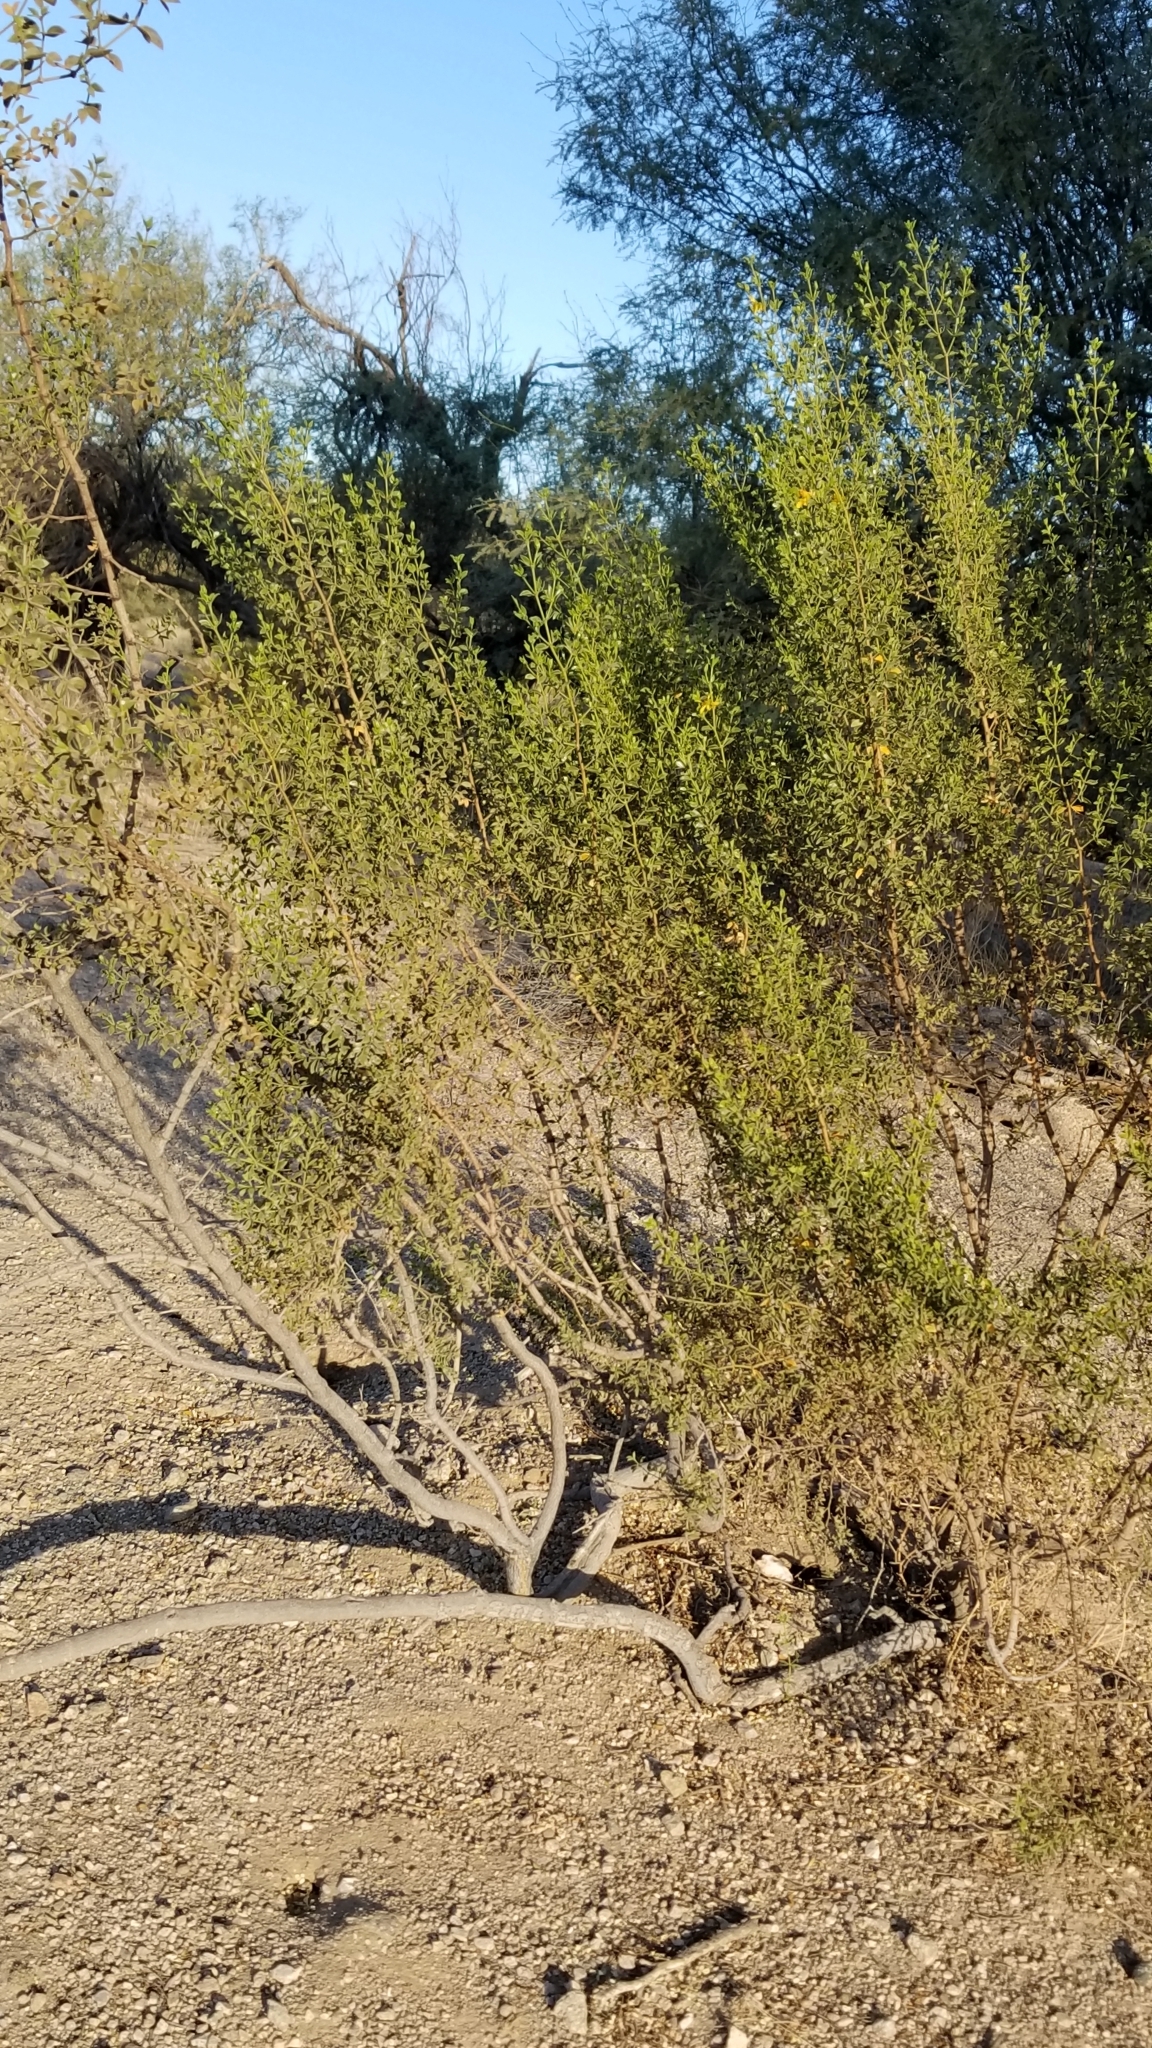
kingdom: Plantae
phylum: Tracheophyta
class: Magnoliopsida
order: Zygophyllales
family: Zygophyllaceae
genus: Larrea
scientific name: Larrea tridentata
